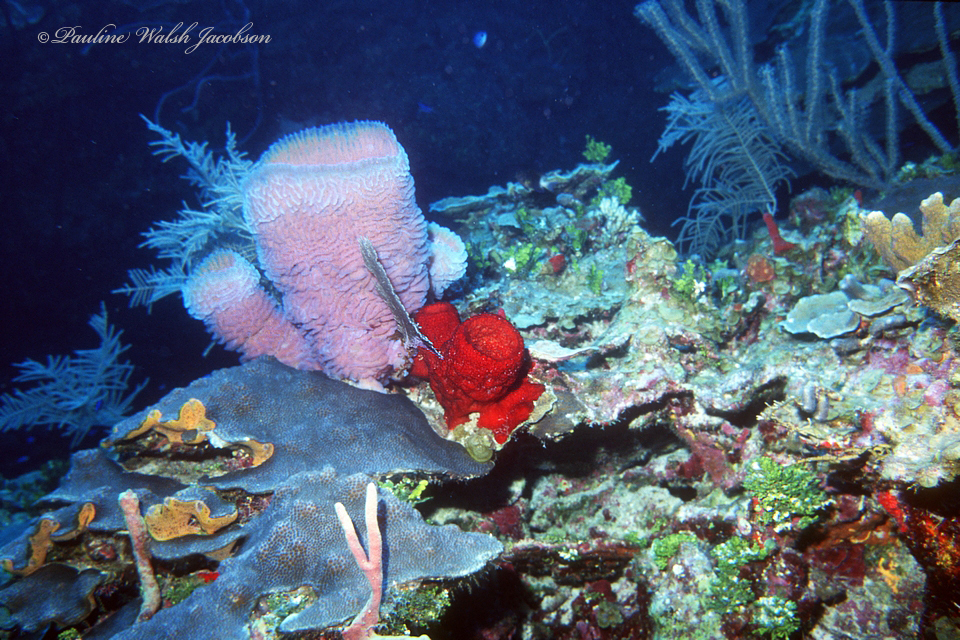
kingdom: Animalia
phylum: Porifera
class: Demospongiae
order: Haplosclerida
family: Callyspongiidae
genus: Callyspongia
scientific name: Callyspongia plicifera
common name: Azure vase sponge
